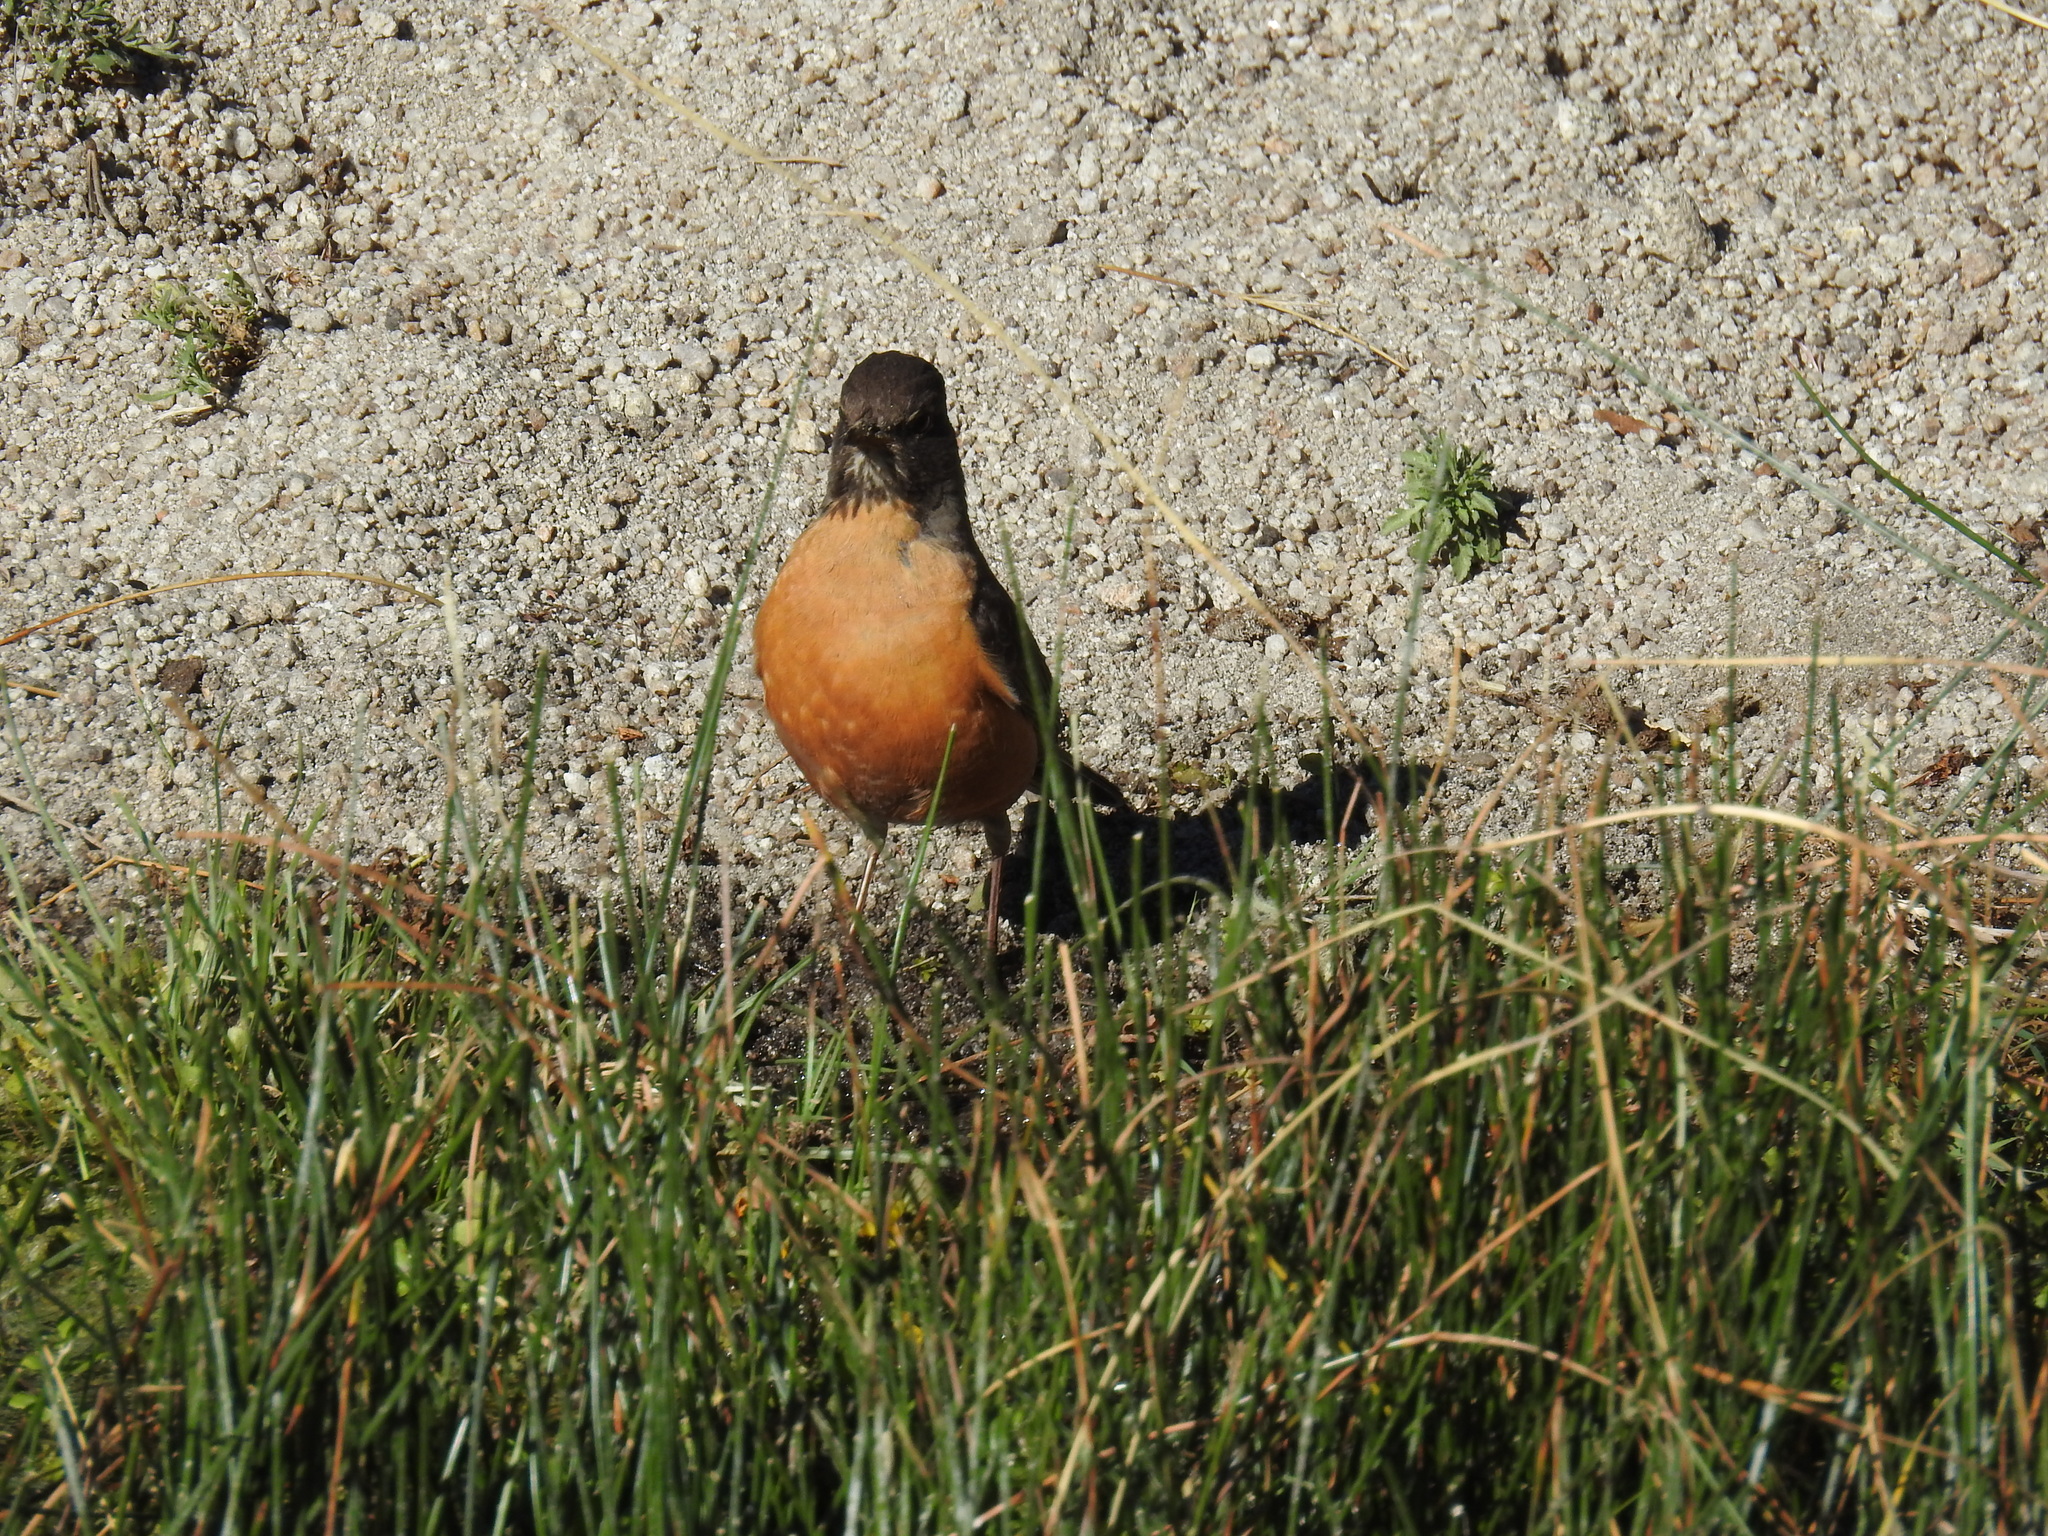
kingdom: Animalia
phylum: Chordata
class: Aves
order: Passeriformes
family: Turdidae
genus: Turdus
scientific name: Turdus migratorius
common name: American robin
